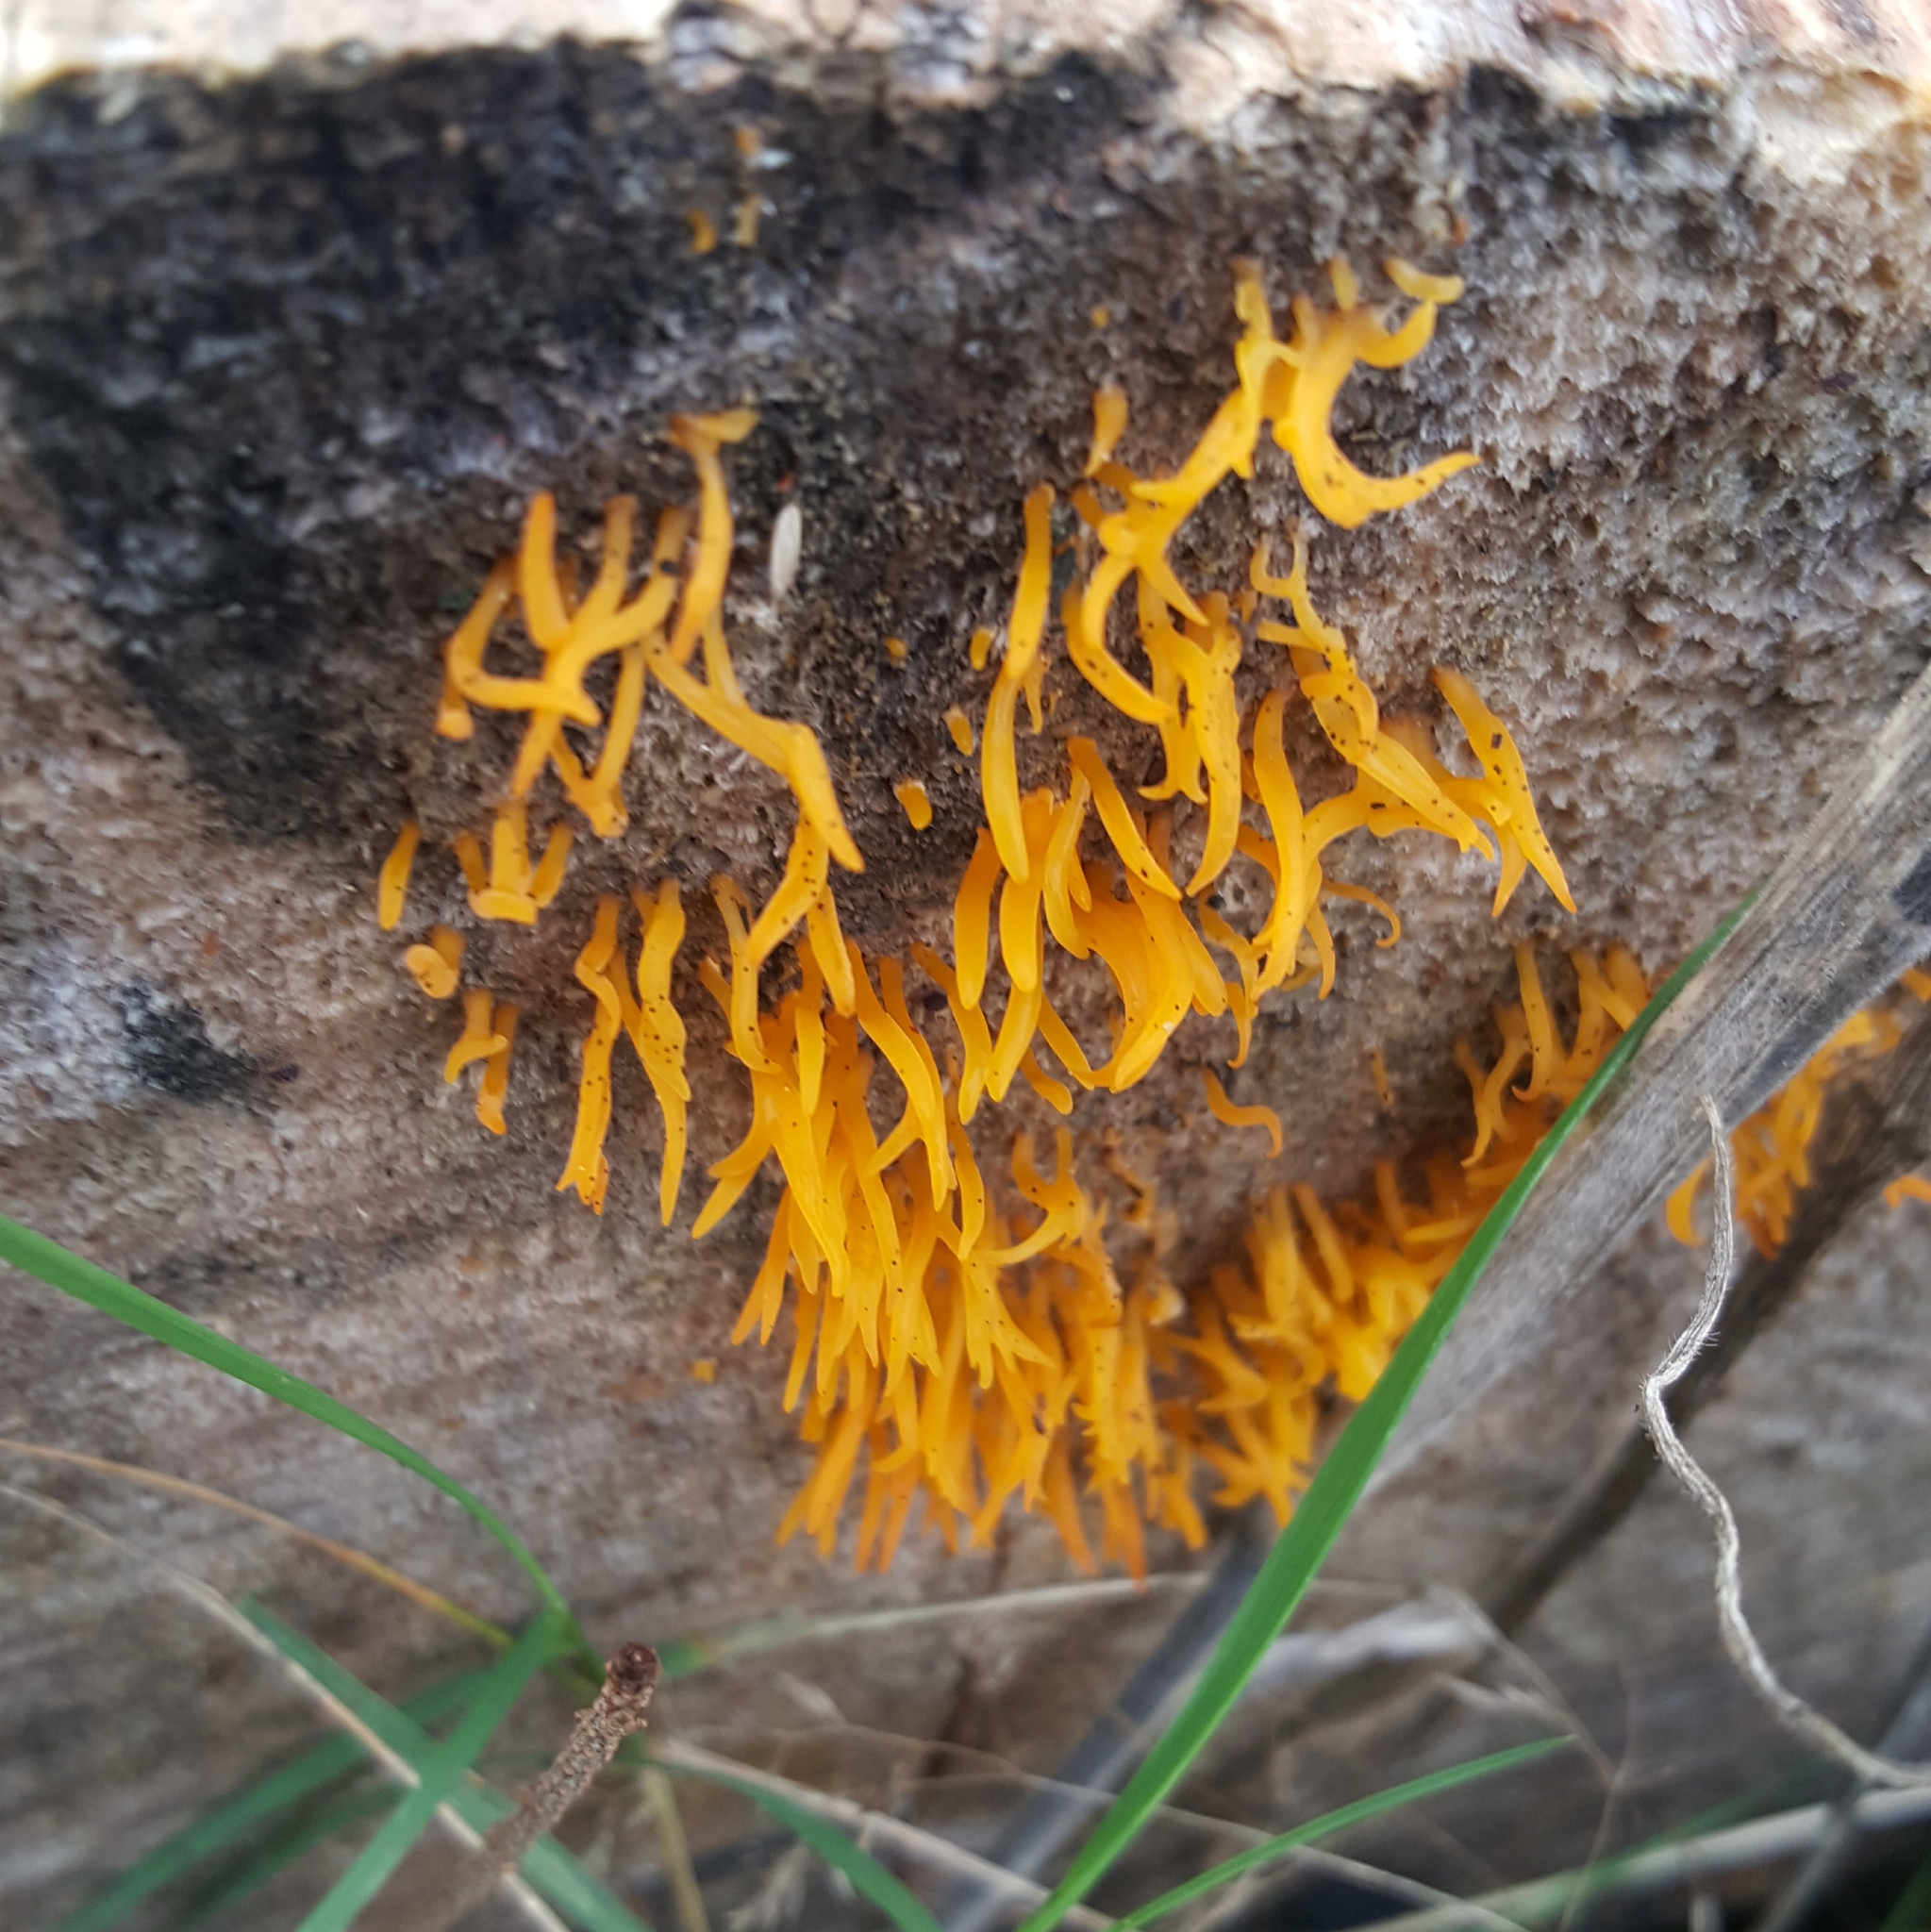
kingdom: Fungi
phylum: Basidiomycota
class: Dacrymycetes
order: Dacrymycetales
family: Dacrymycetaceae
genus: Calocera
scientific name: Calocera cornea
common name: Small stagshorn
